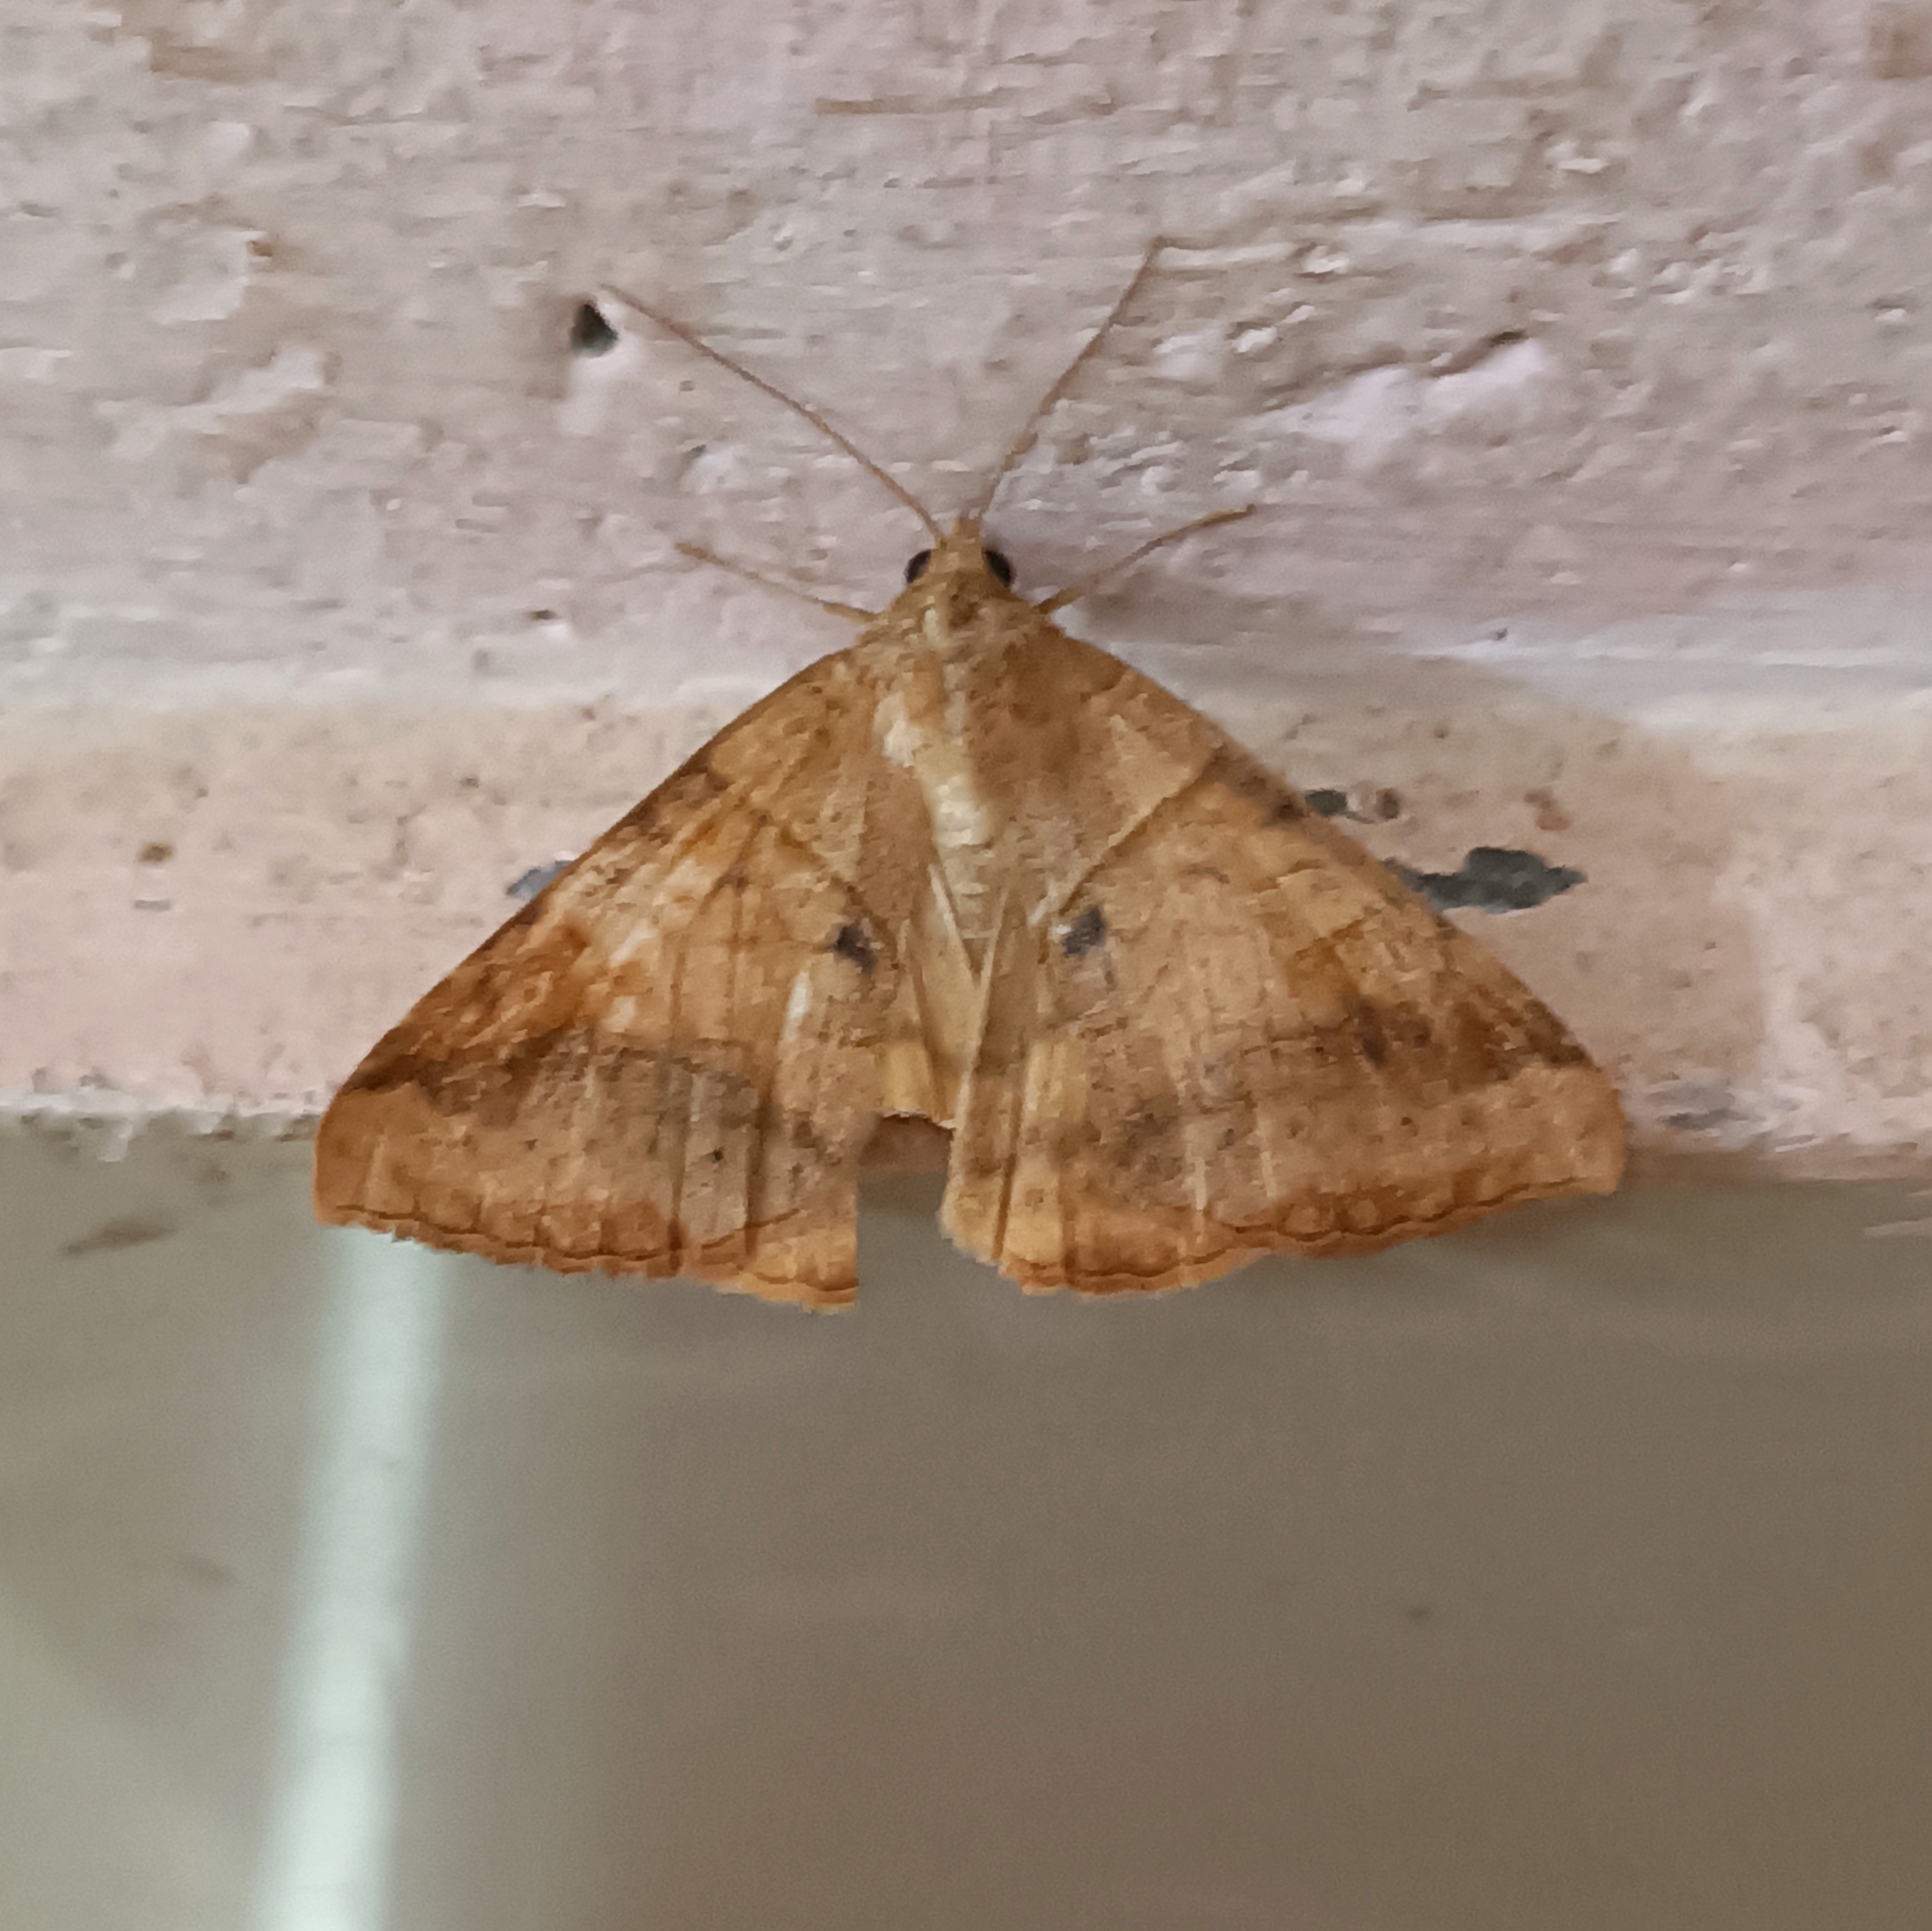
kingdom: Animalia
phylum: Arthropoda
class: Insecta
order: Lepidoptera
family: Erebidae
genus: Mocis
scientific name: Mocis undata
